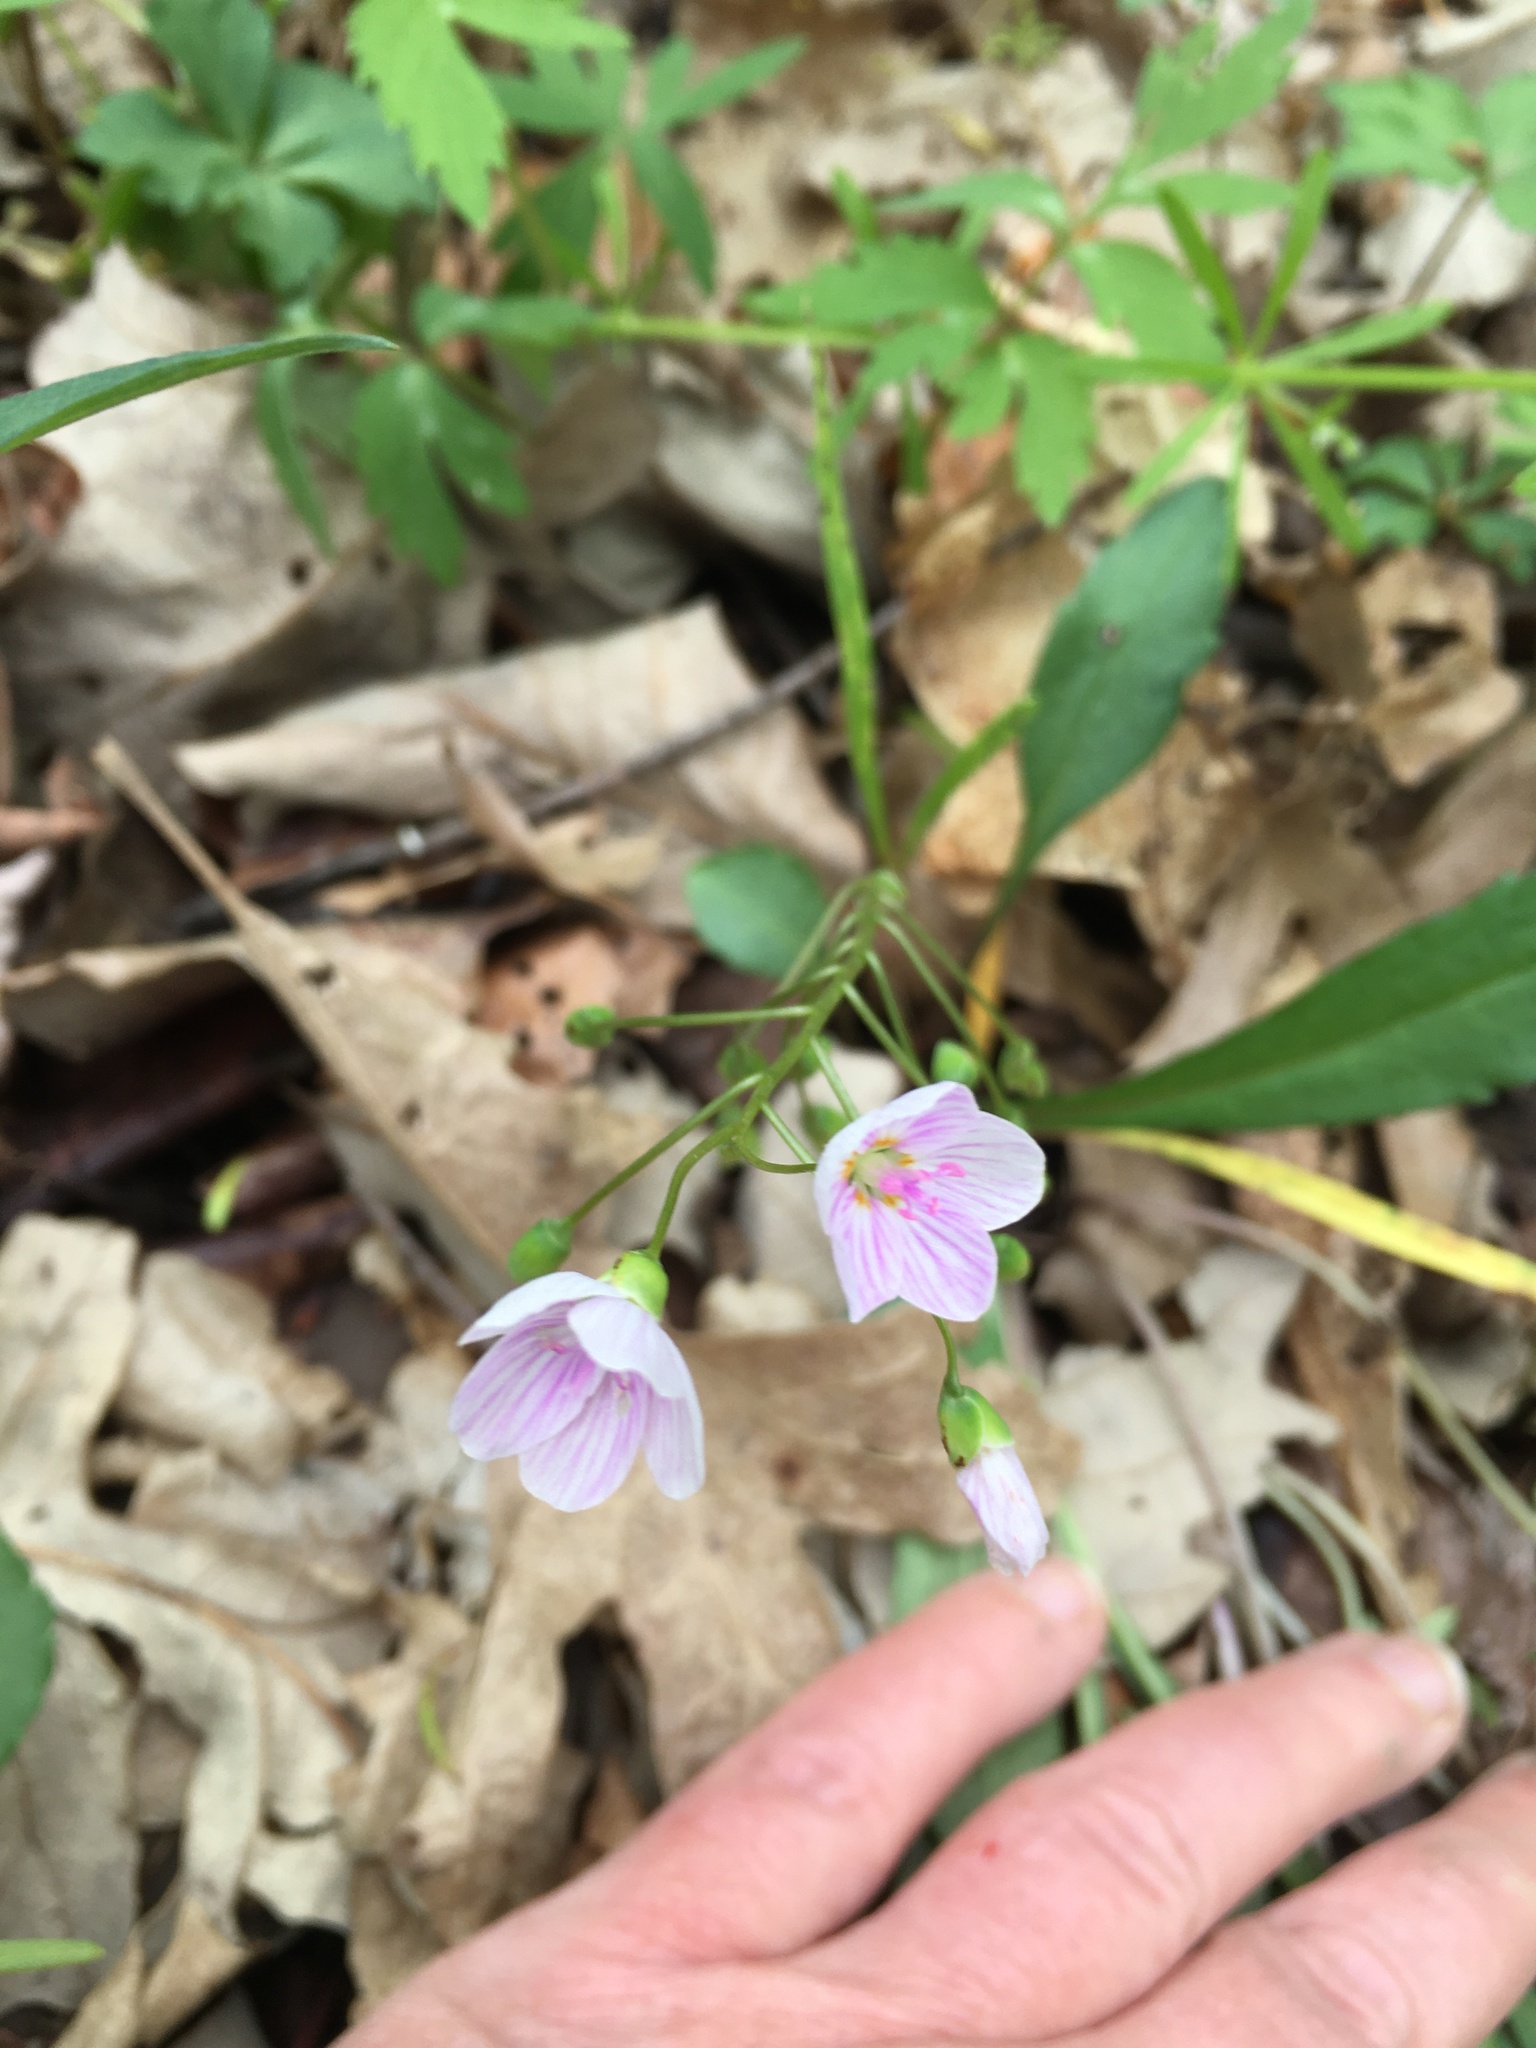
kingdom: Plantae
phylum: Tracheophyta
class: Magnoliopsida
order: Caryophyllales
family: Montiaceae
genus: Claytonia
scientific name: Claytonia virginica
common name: Virginia springbeauty
